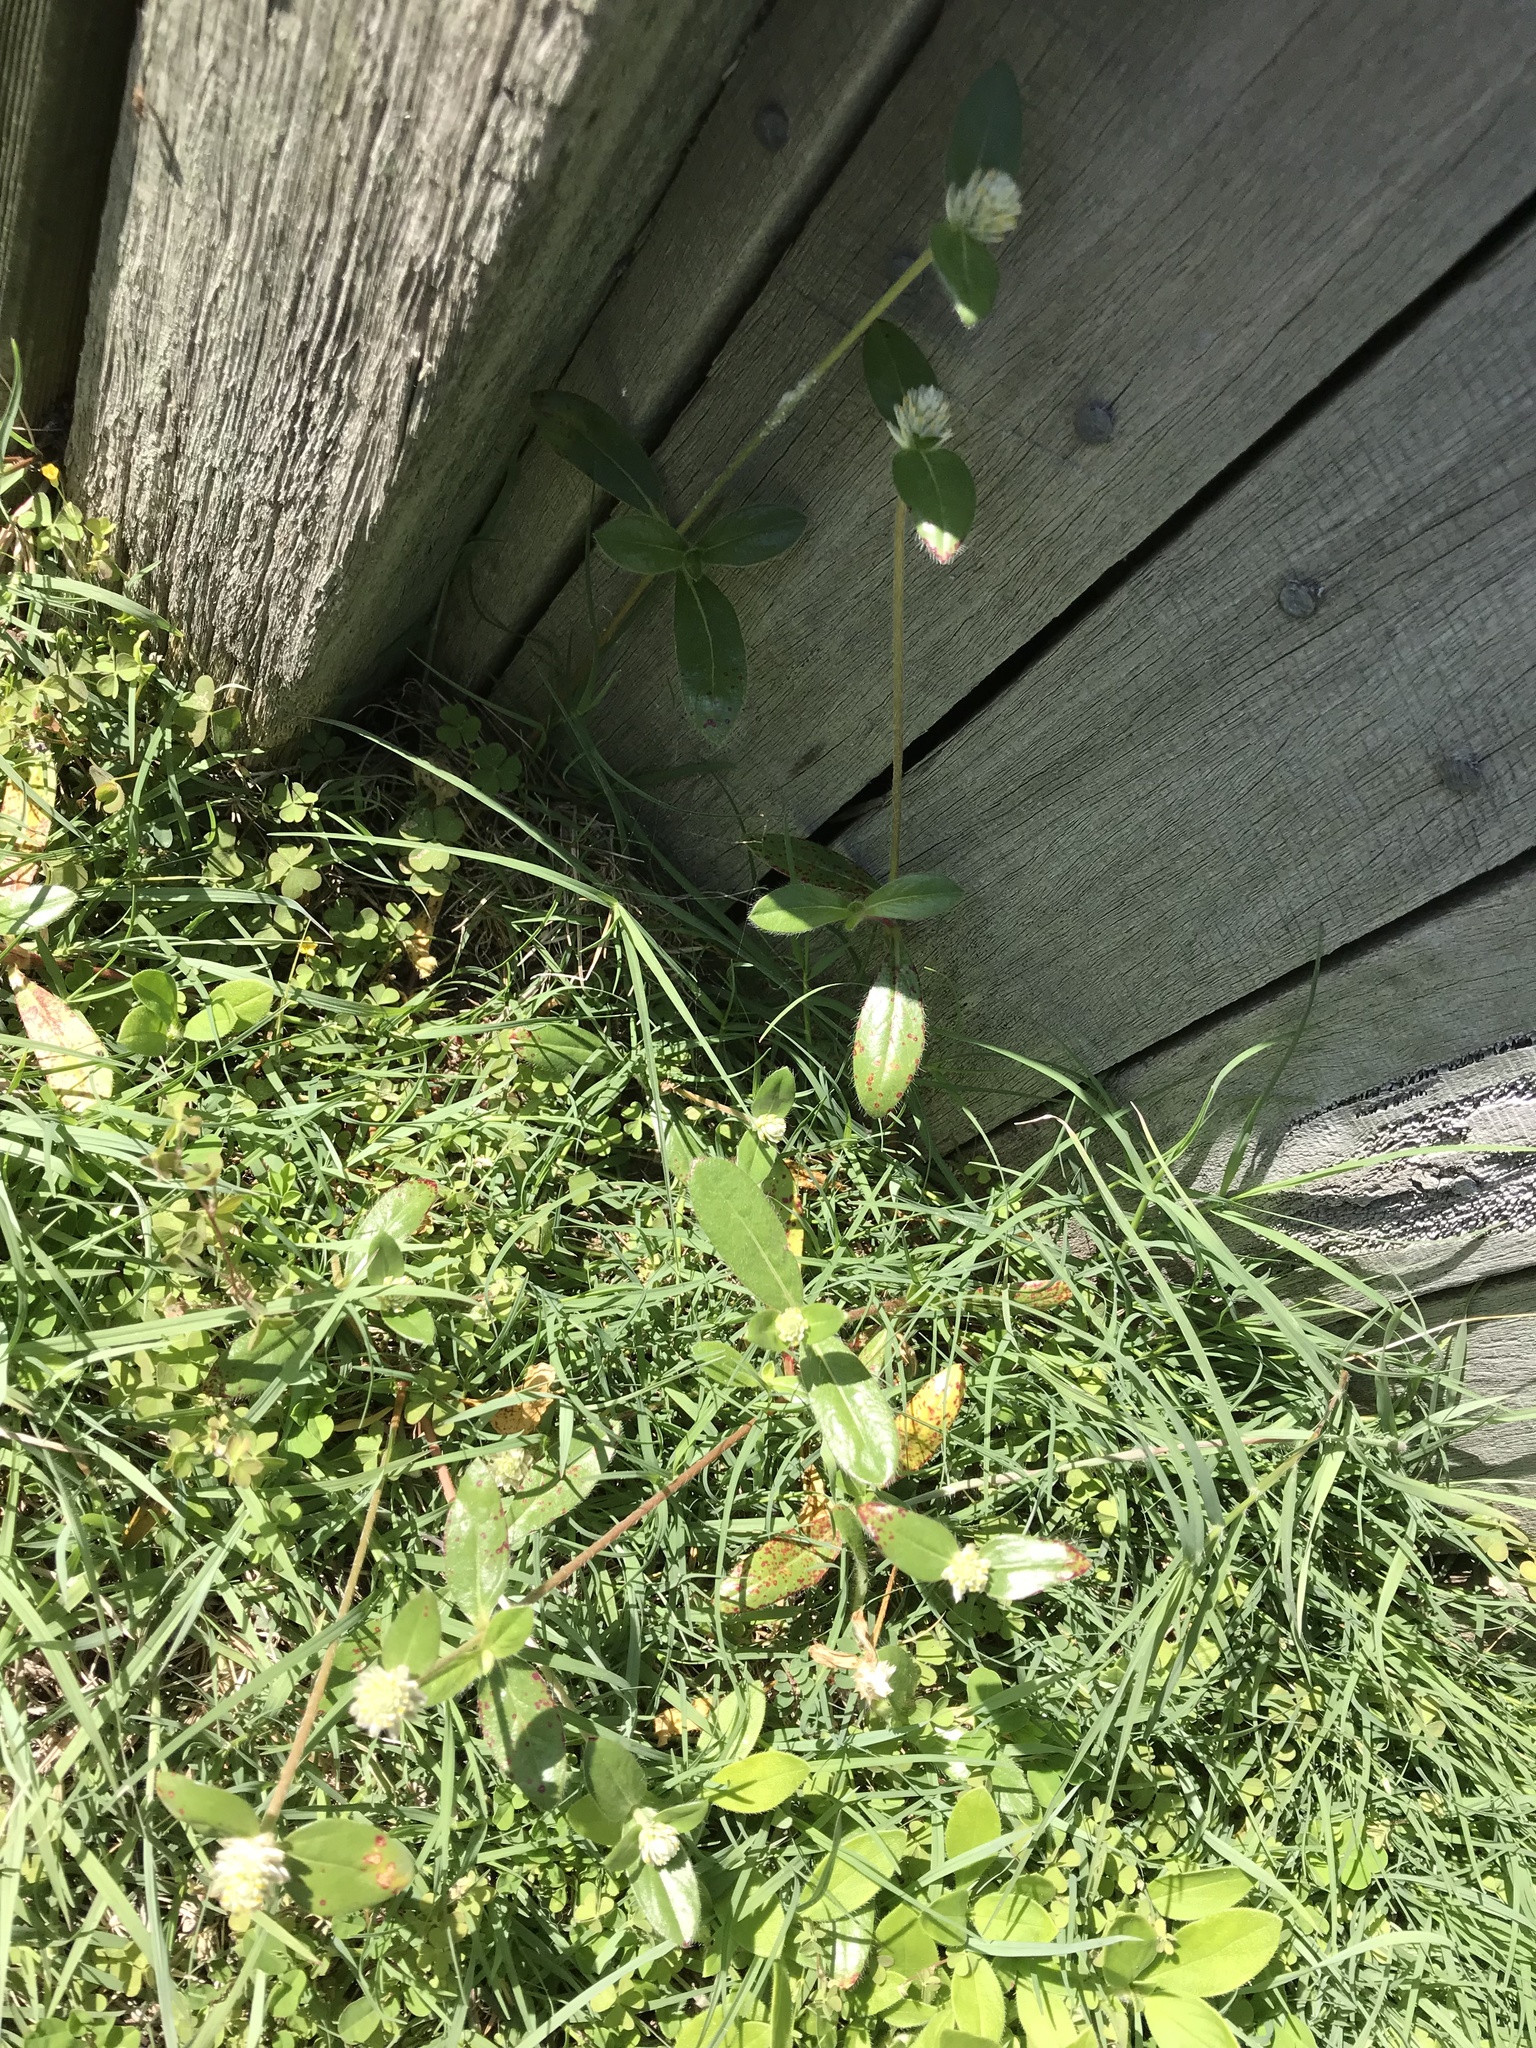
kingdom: Plantae
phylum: Tracheophyta
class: Magnoliopsida
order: Caryophyllales
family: Amaranthaceae
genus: Gomphrena
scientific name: Gomphrena celosioides
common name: Gomphrena-weed
